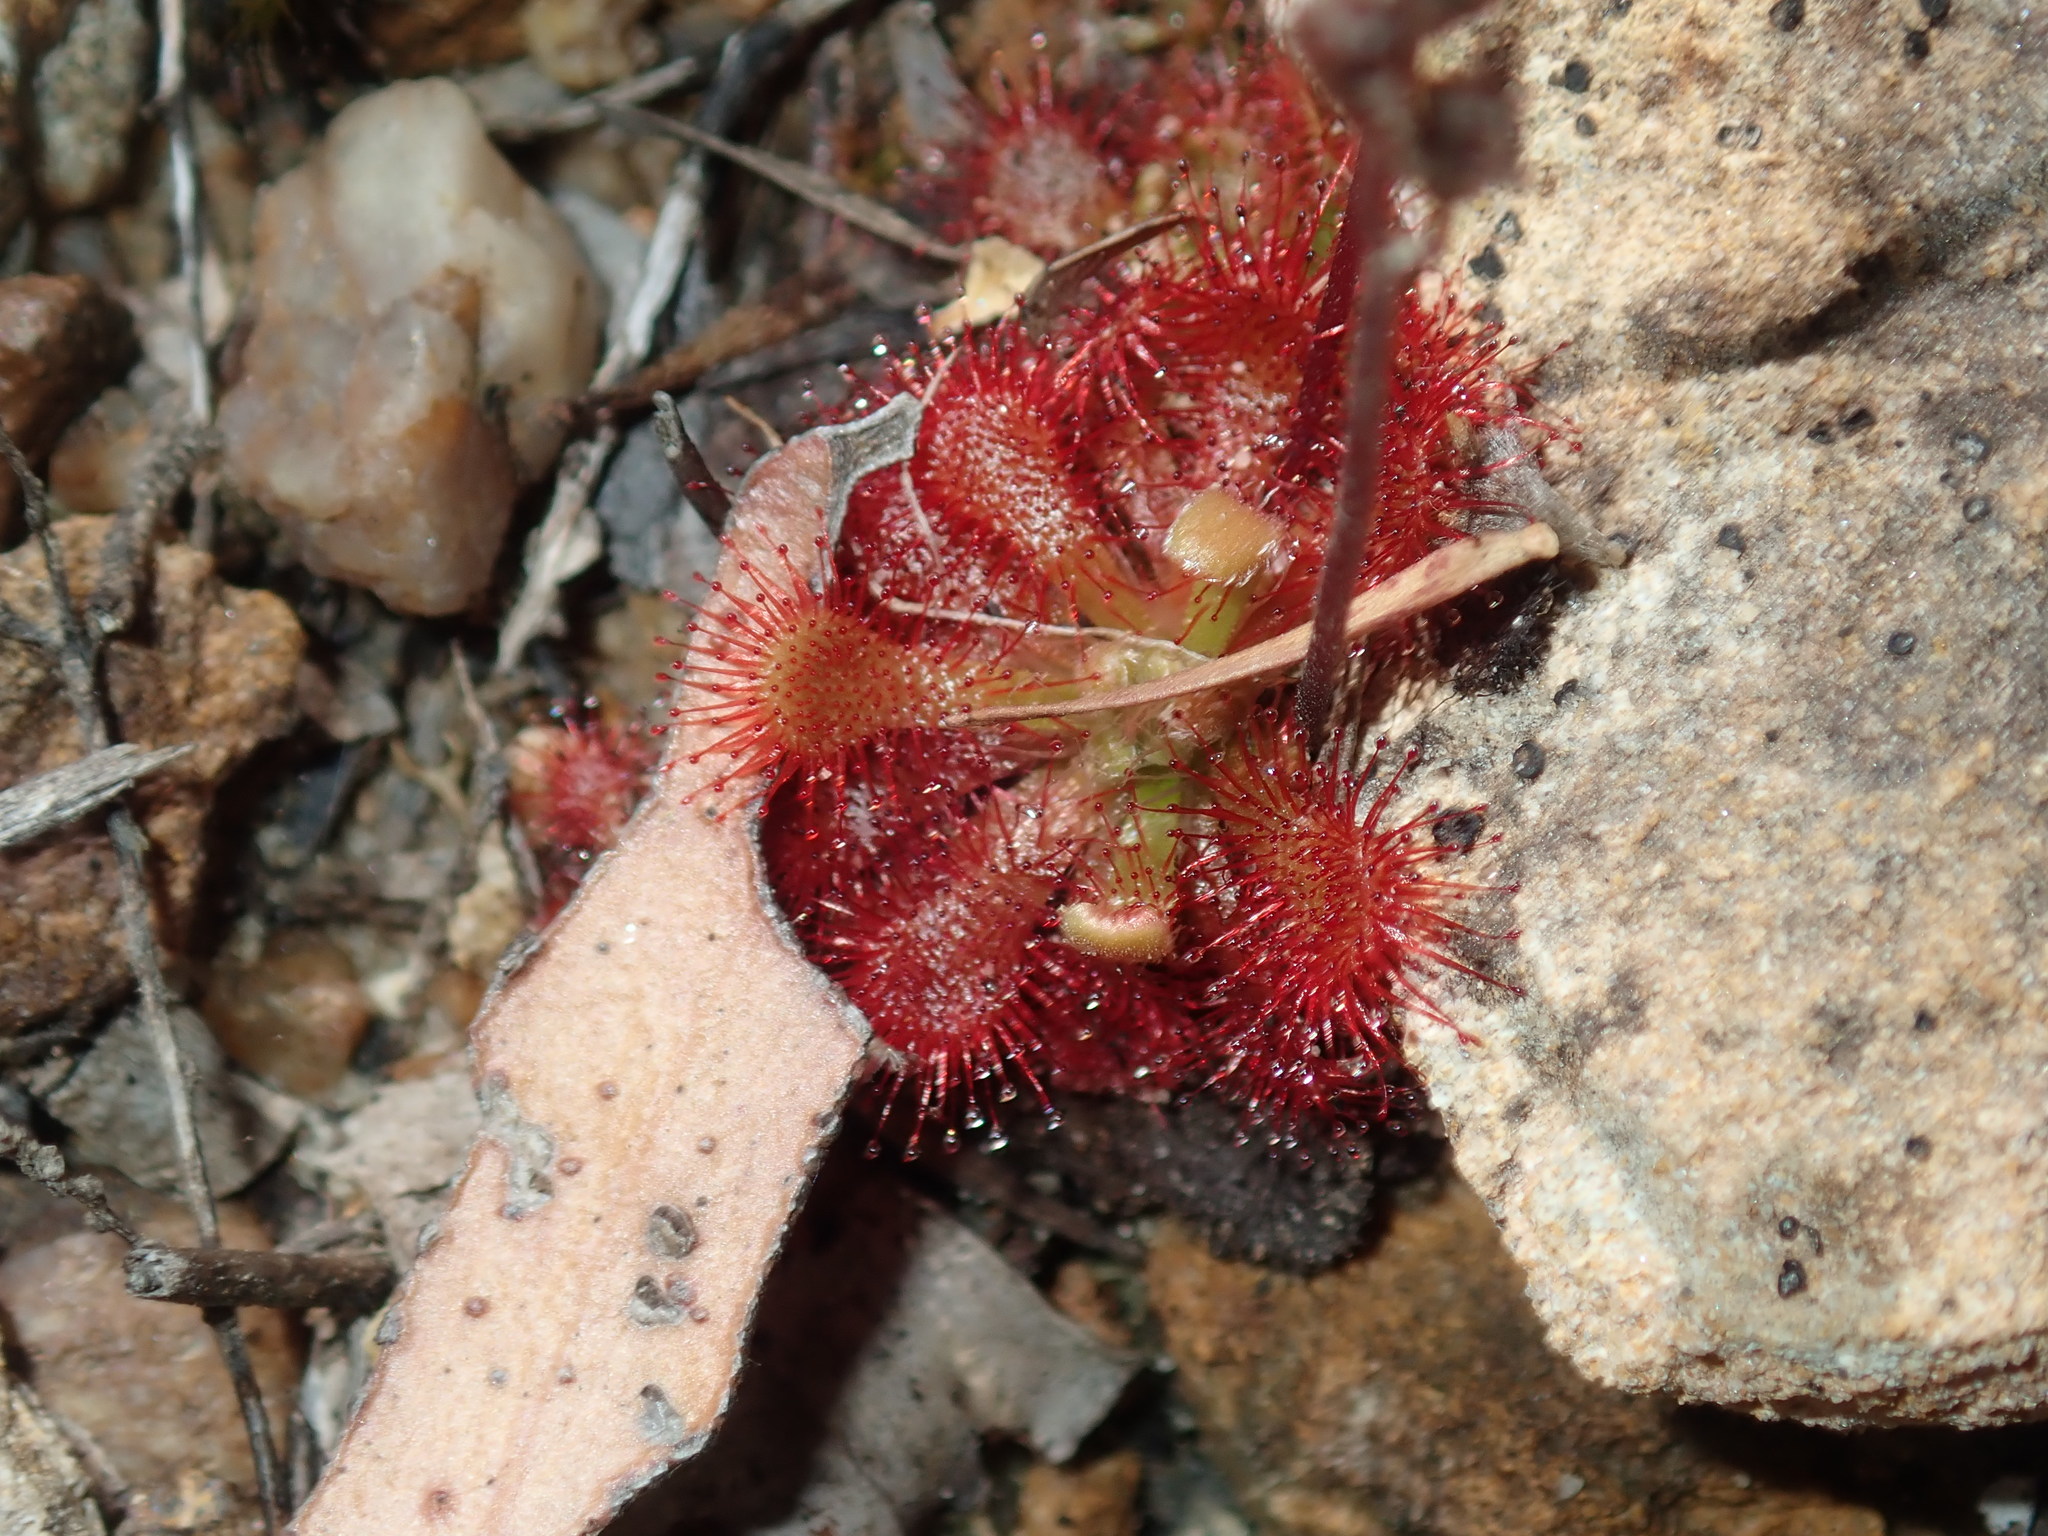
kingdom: Plantae
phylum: Tracheophyta
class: Magnoliopsida
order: Caryophyllales
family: Droseraceae
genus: Drosera
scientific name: Drosera spatulata
